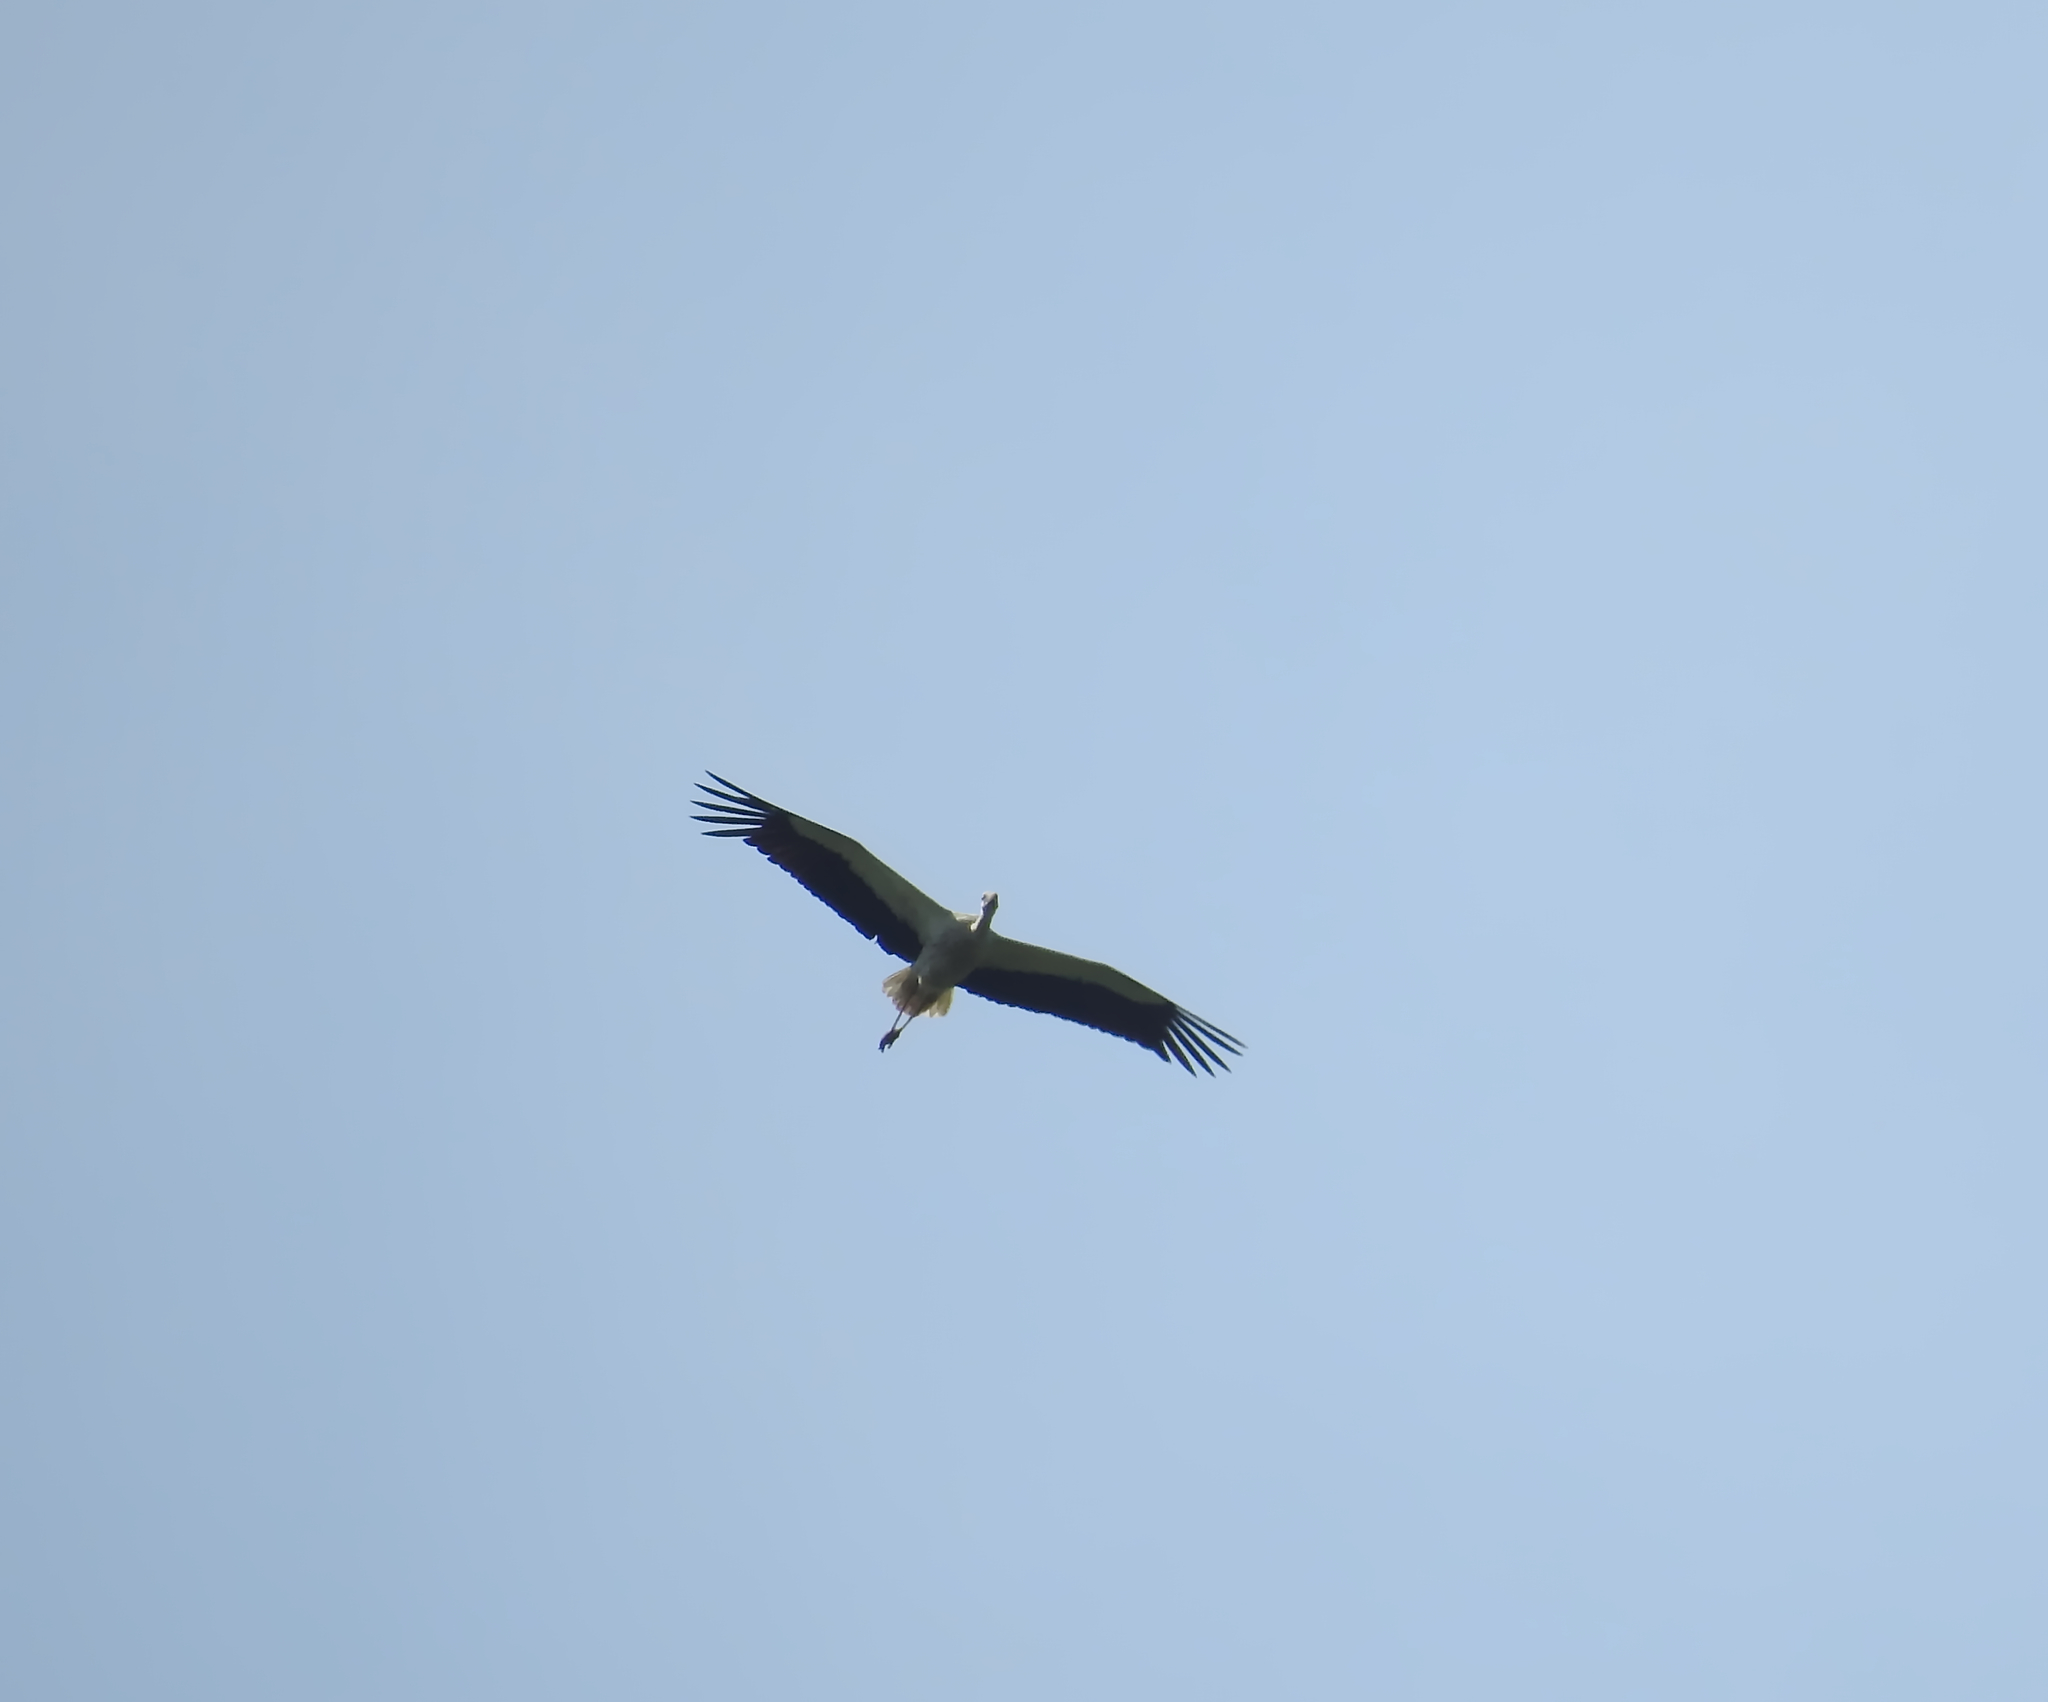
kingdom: Animalia
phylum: Chordata
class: Aves
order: Ciconiiformes
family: Ciconiidae
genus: Ciconia
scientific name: Ciconia ciconia
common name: White stork
